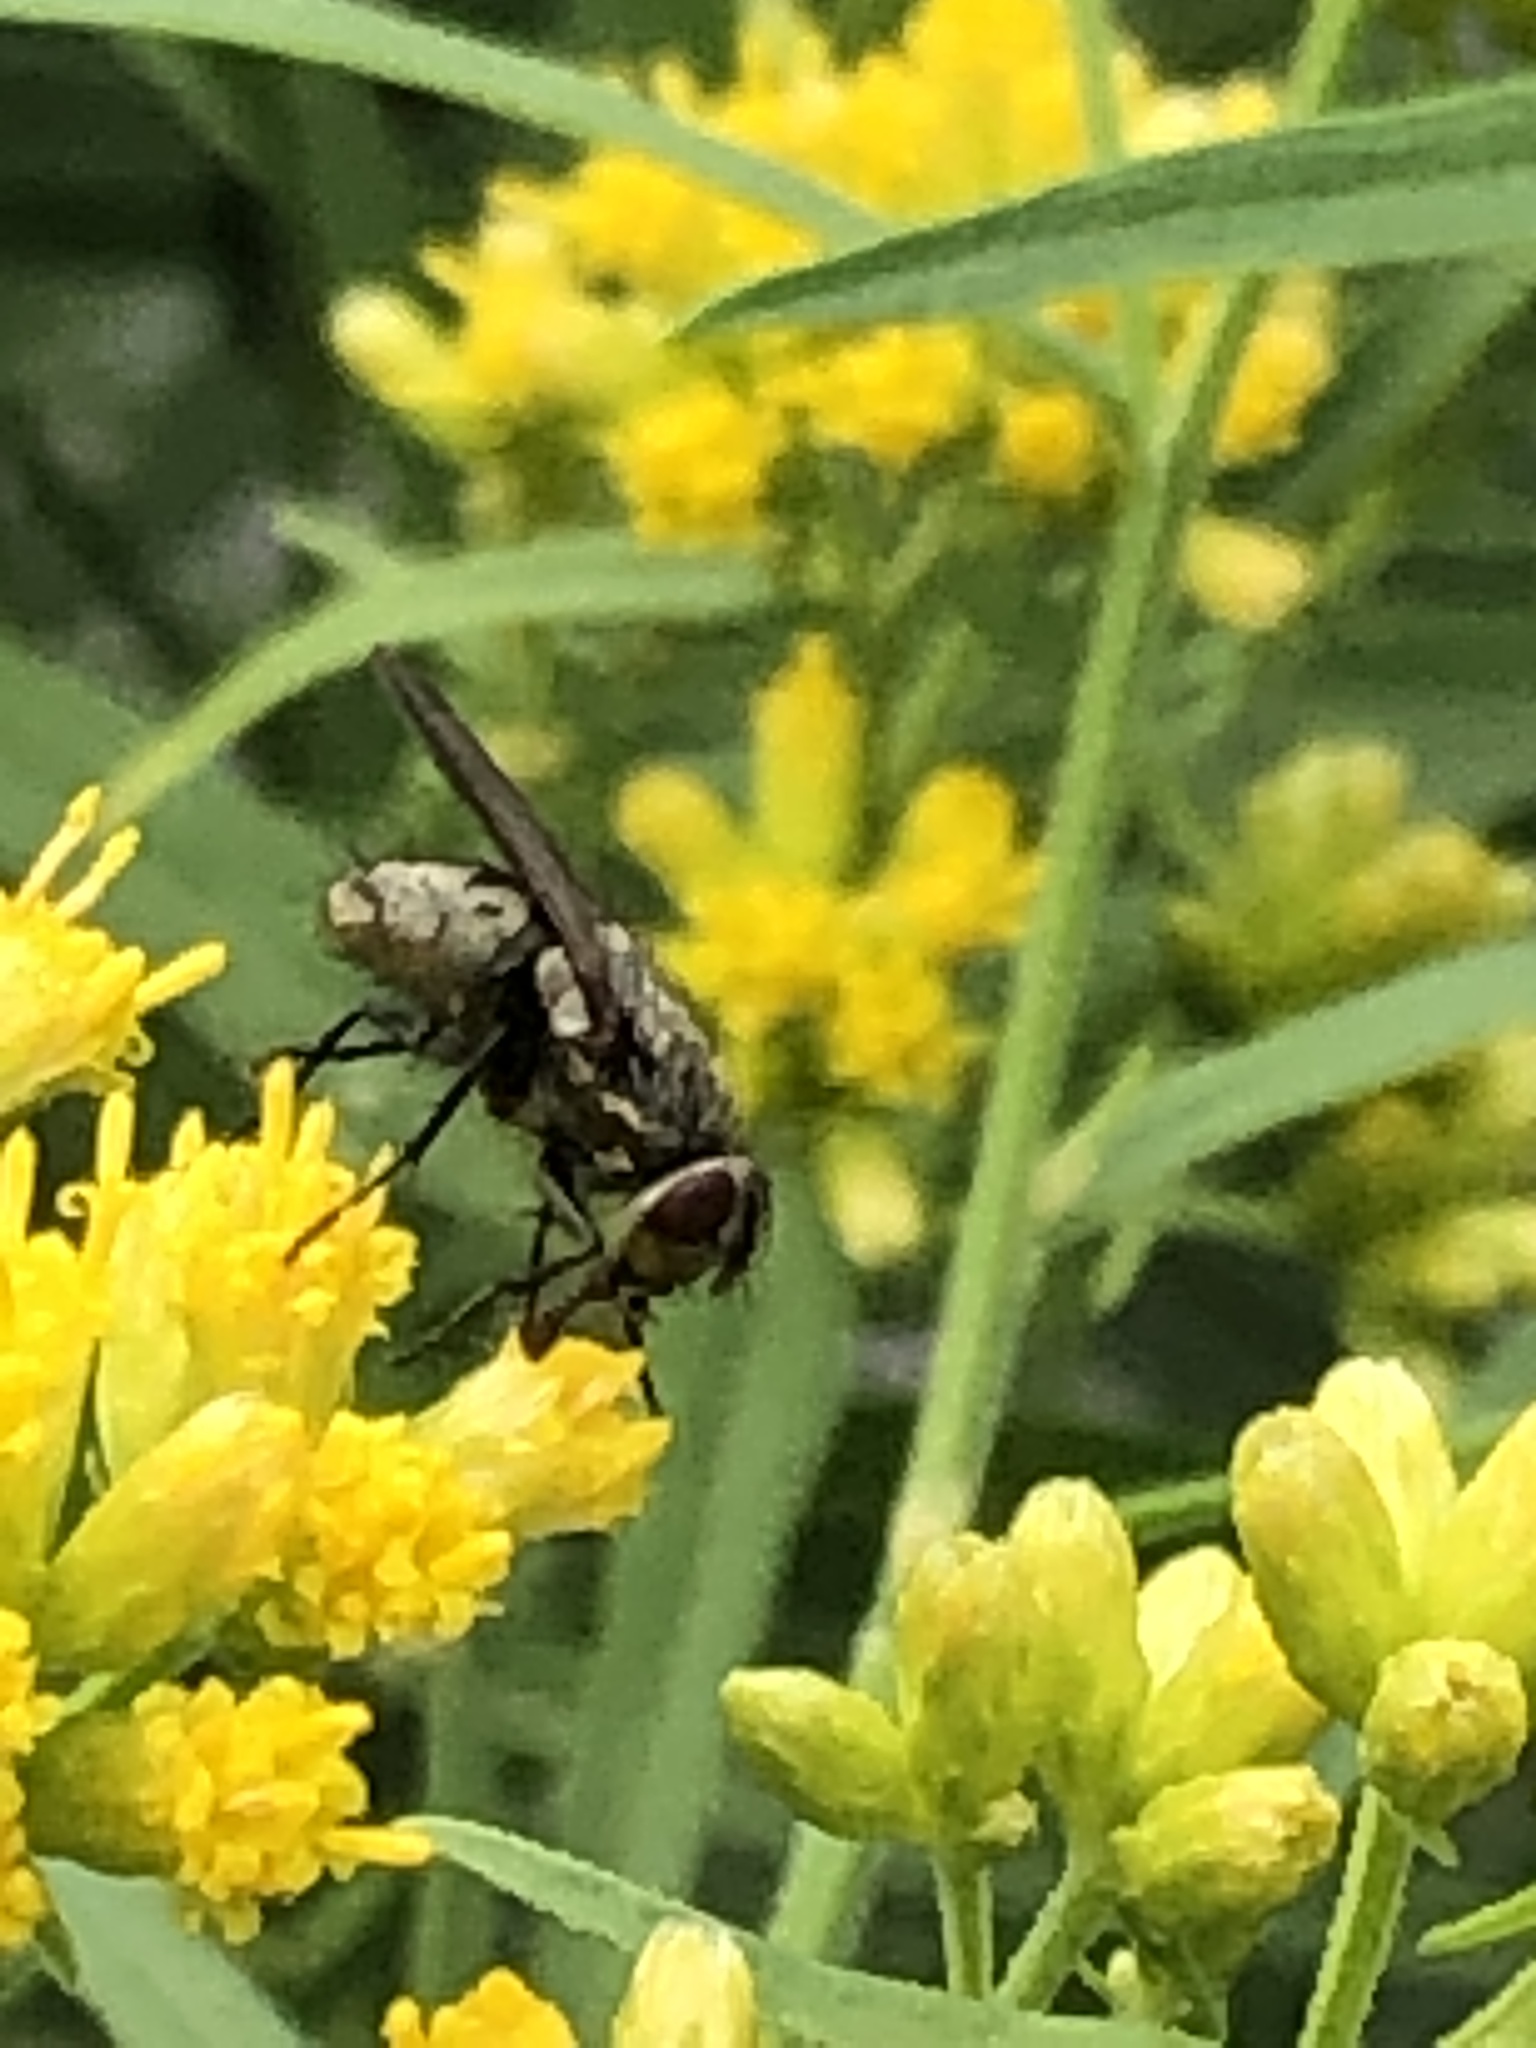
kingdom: Animalia
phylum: Arthropoda
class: Insecta
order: Diptera
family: Polleniidae
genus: Pollenia
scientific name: Pollenia
